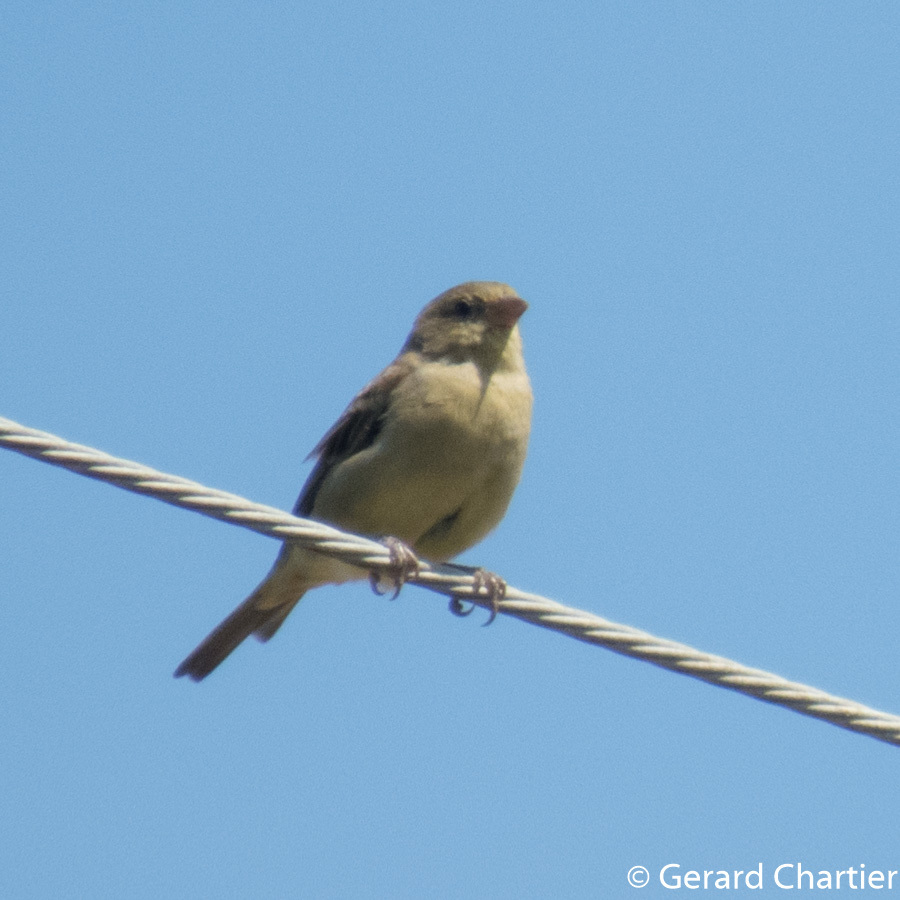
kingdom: Animalia
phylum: Chordata
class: Aves
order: Passeriformes
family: Passeridae
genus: Passer
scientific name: Passer flaveolus
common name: Plain-backed sparrow
